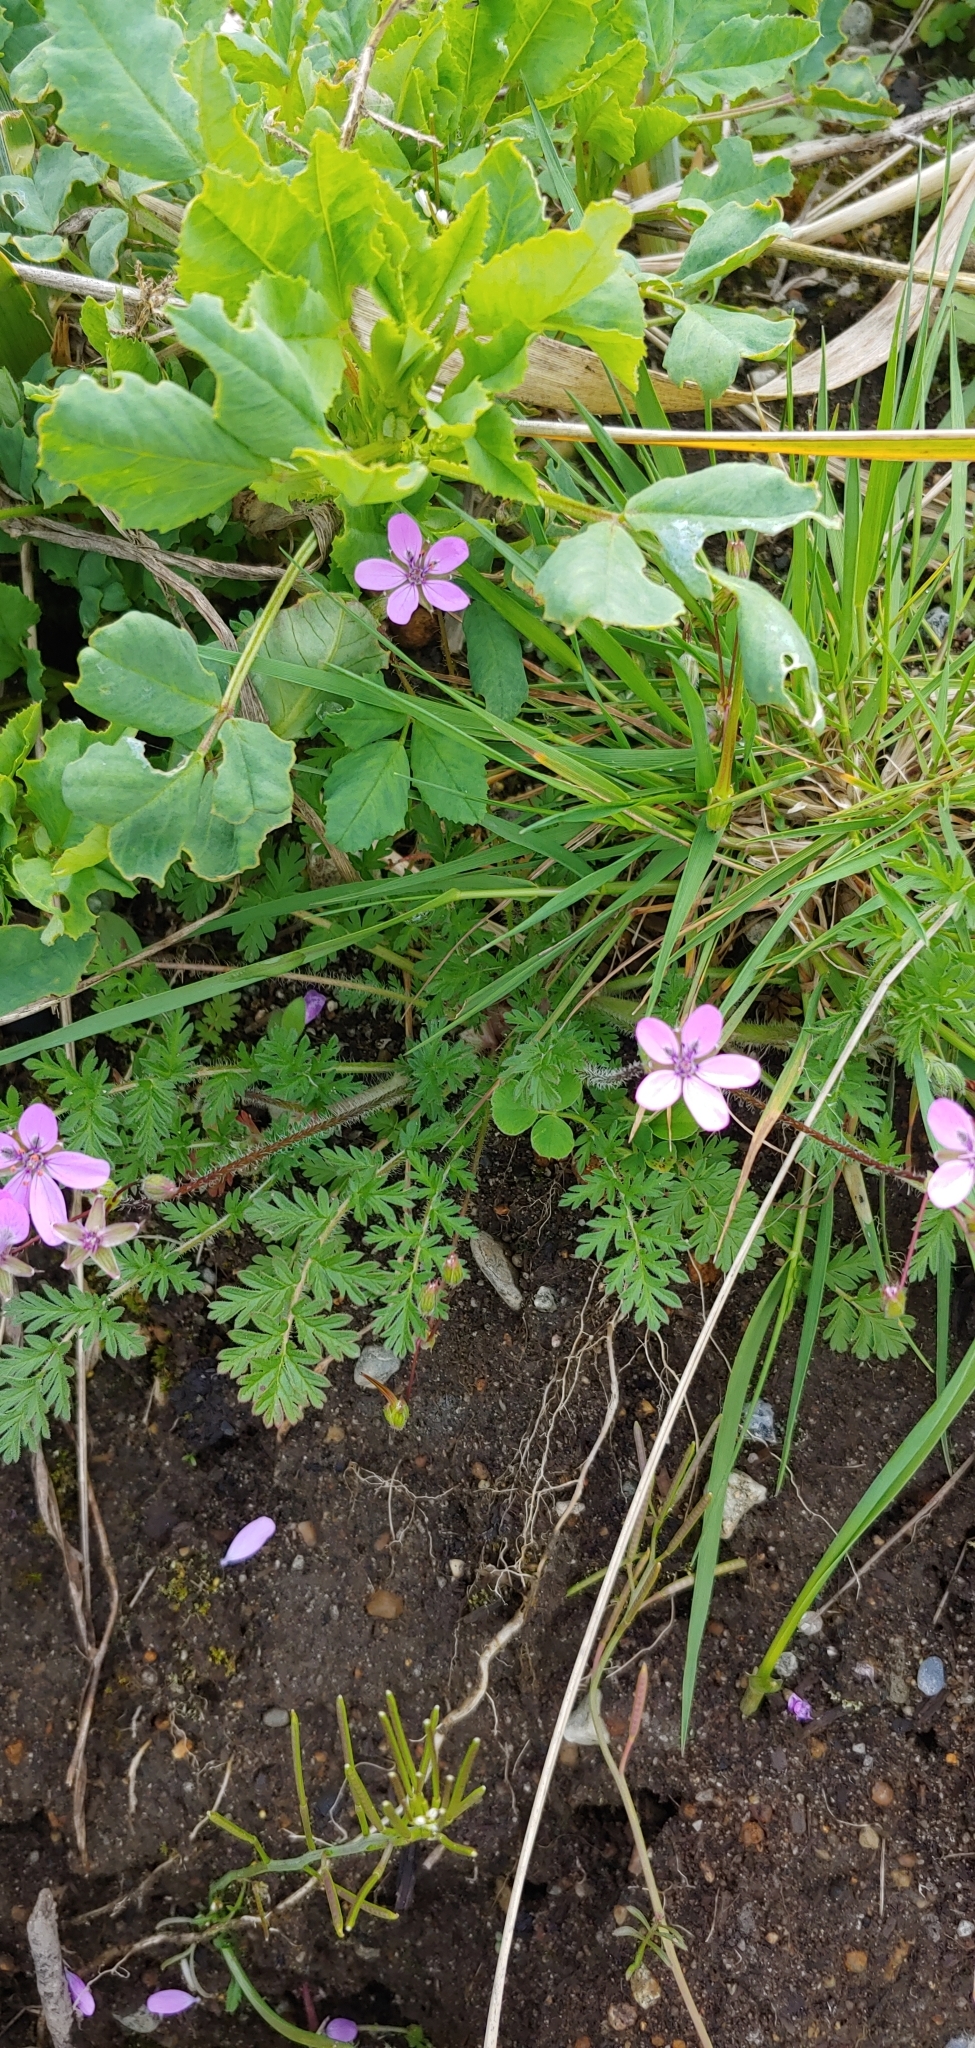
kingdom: Plantae
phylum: Tracheophyta
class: Magnoliopsida
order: Geraniales
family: Geraniaceae
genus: Erodium
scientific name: Erodium cicutarium
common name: Common stork's-bill
